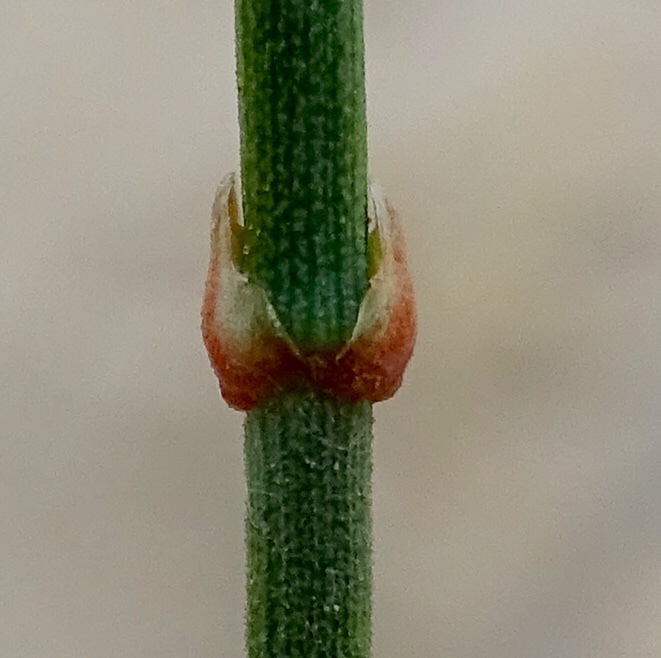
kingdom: Plantae
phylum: Tracheophyta
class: Gnetopsida
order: Ephedrales
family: Ephedraceae
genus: Ephedra
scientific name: Ephedra aspera
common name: Boundary ephedra
